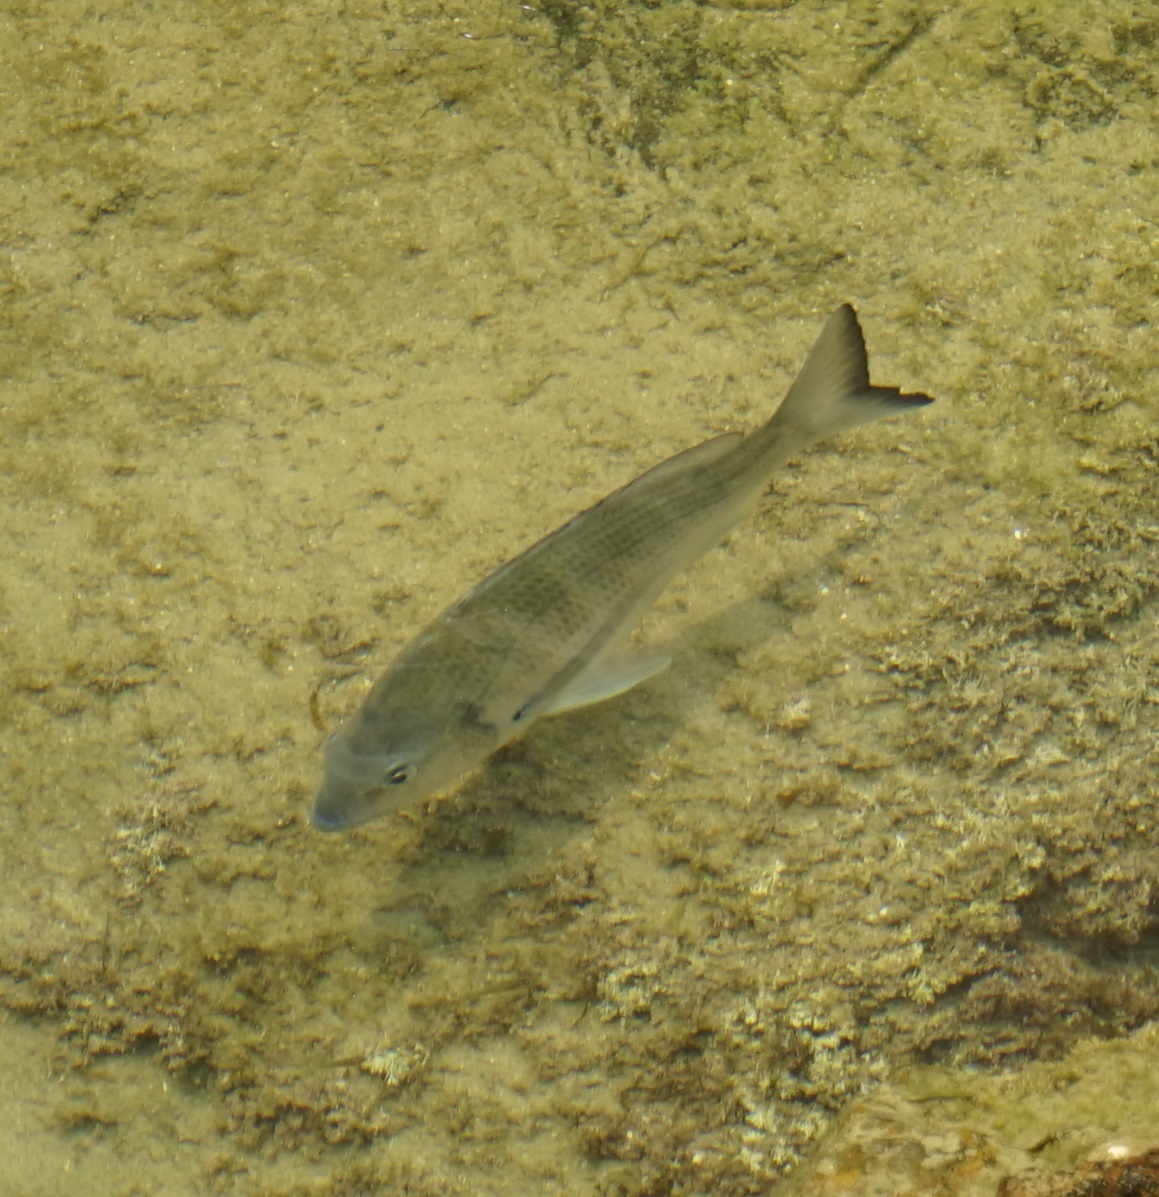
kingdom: Animalia
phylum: Chordata
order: Perciformes
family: Sparidae
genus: Acanthopagrus
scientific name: Acanthopagrus australis
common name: Surf bream
